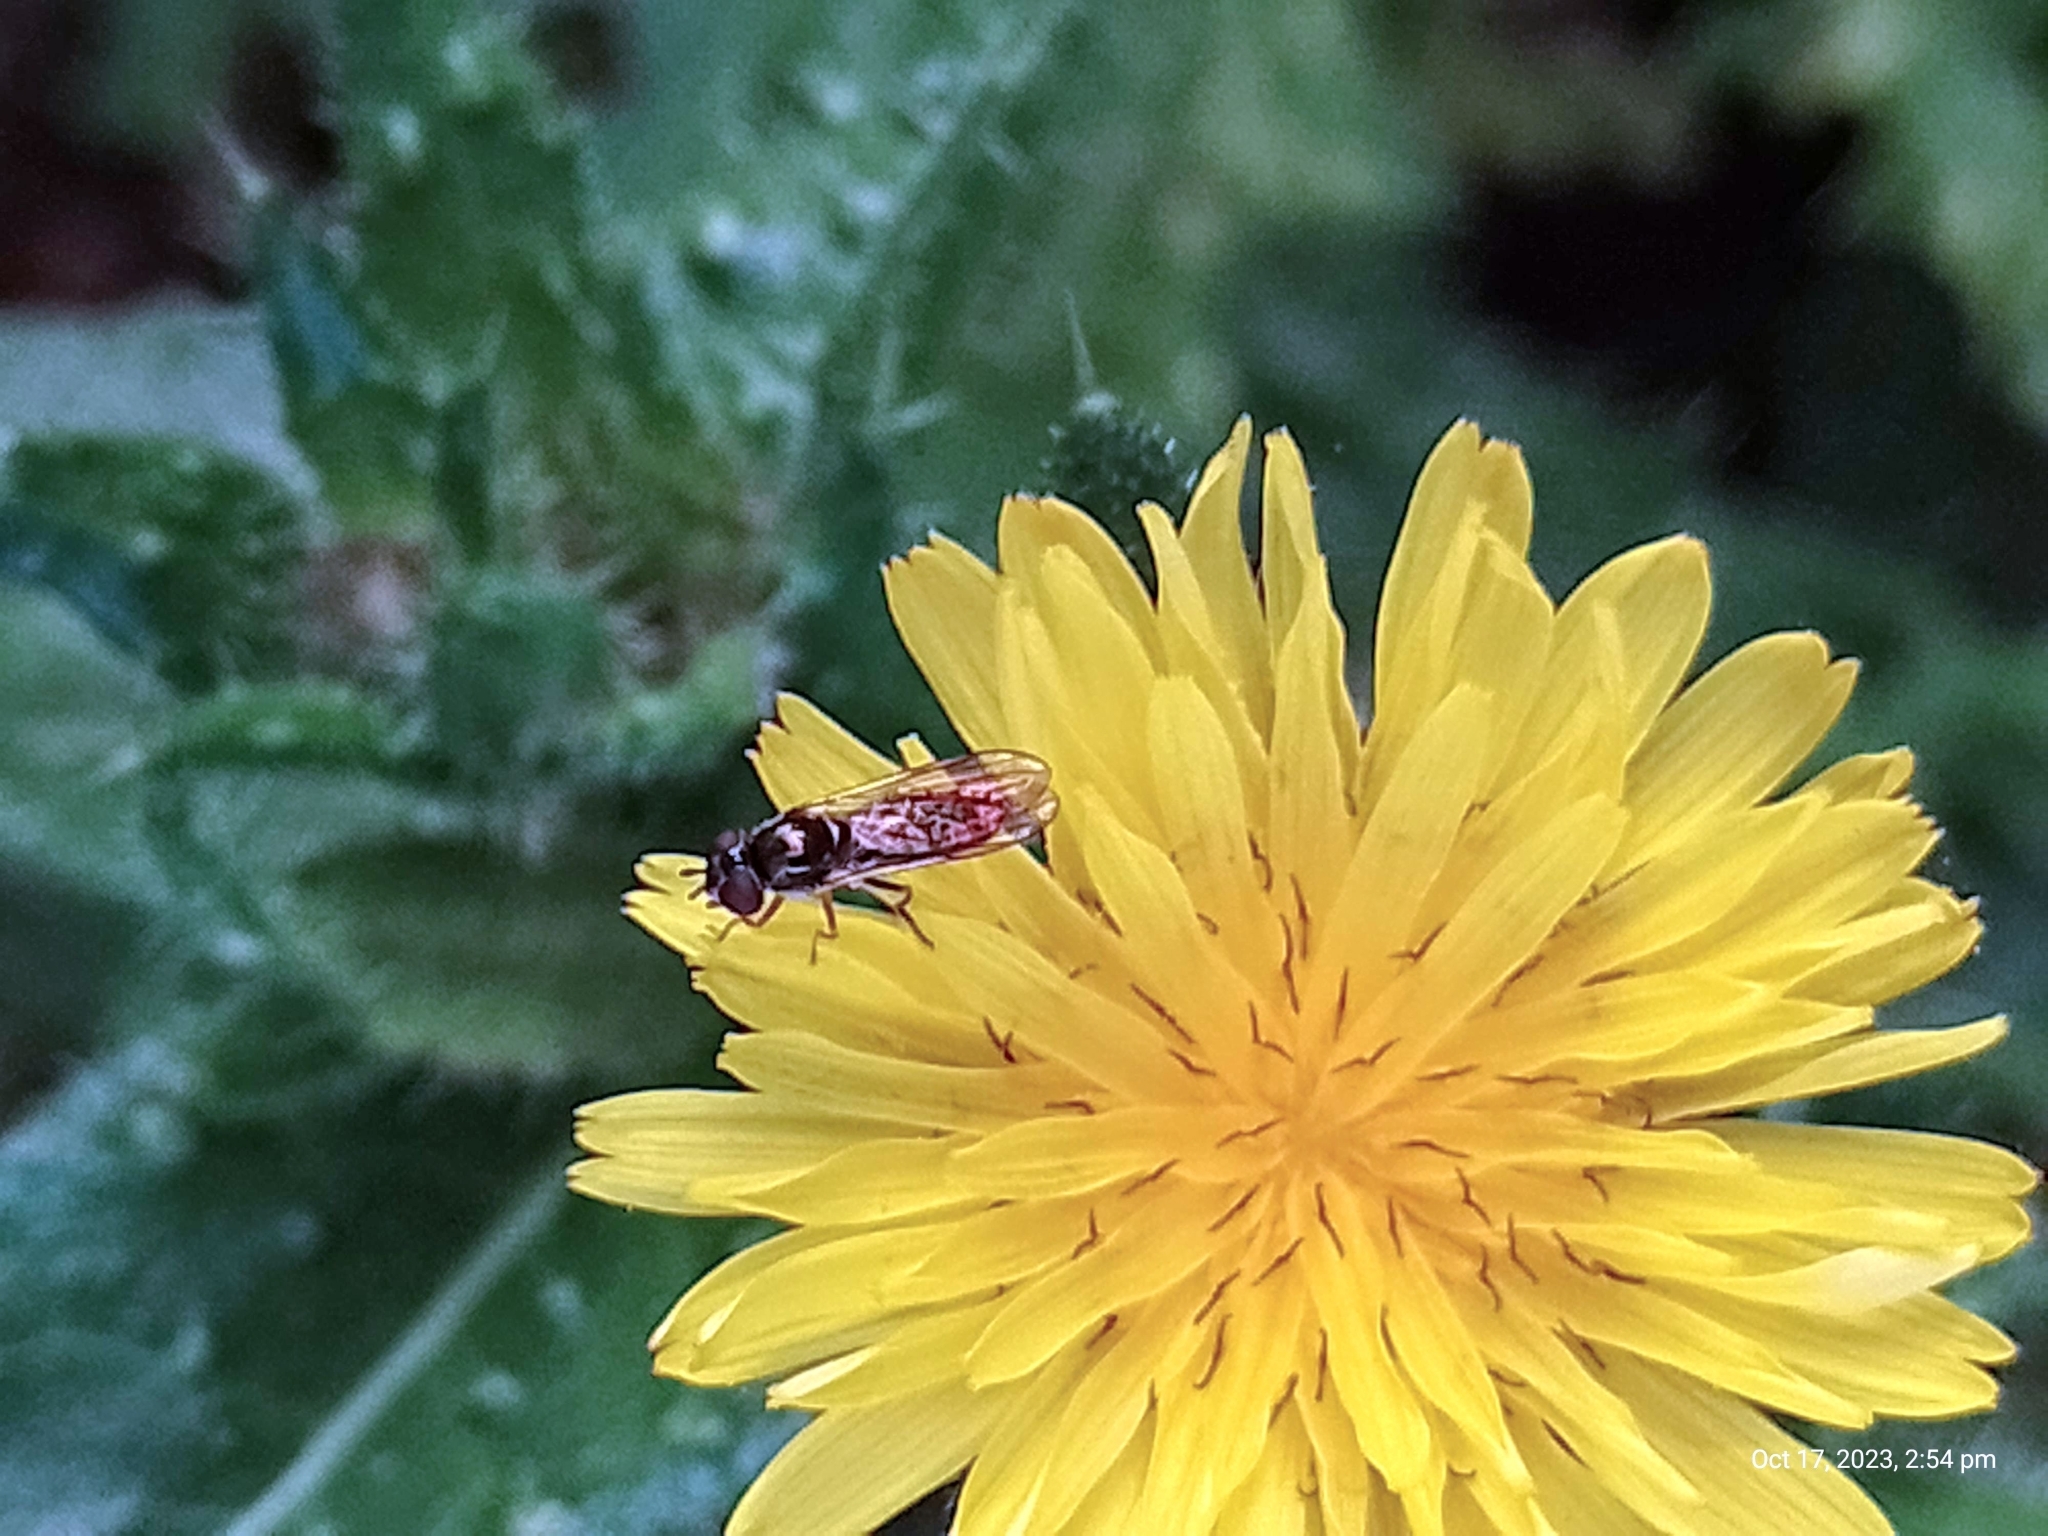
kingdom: Animalia
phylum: Arthropoda
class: Insecta
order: Diptera
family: Syrphidae
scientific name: Syrphidae
